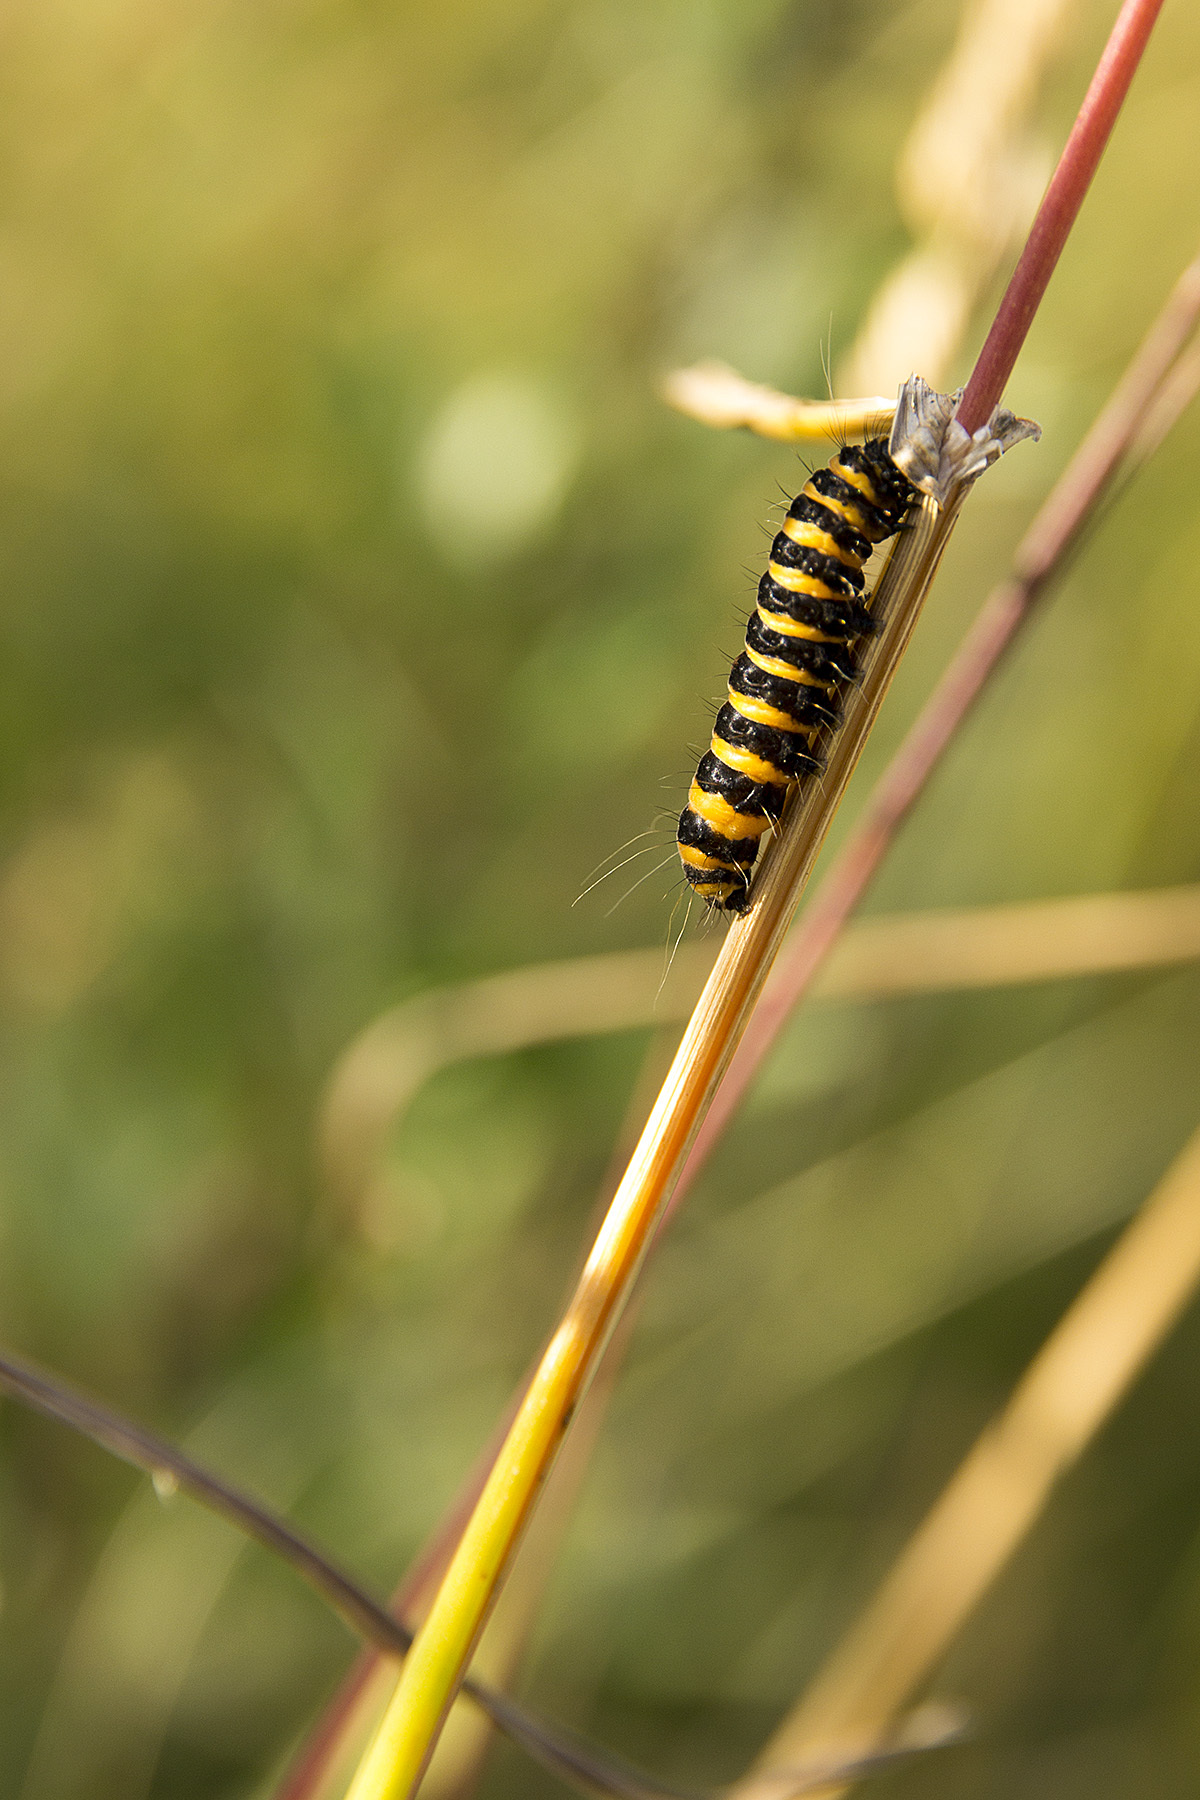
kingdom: Animalia
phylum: Arthropoda
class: Insecta
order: Lepidoptera
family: Erebidae
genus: Tyria
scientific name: Tyria jacobaeae
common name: Cinnabar
